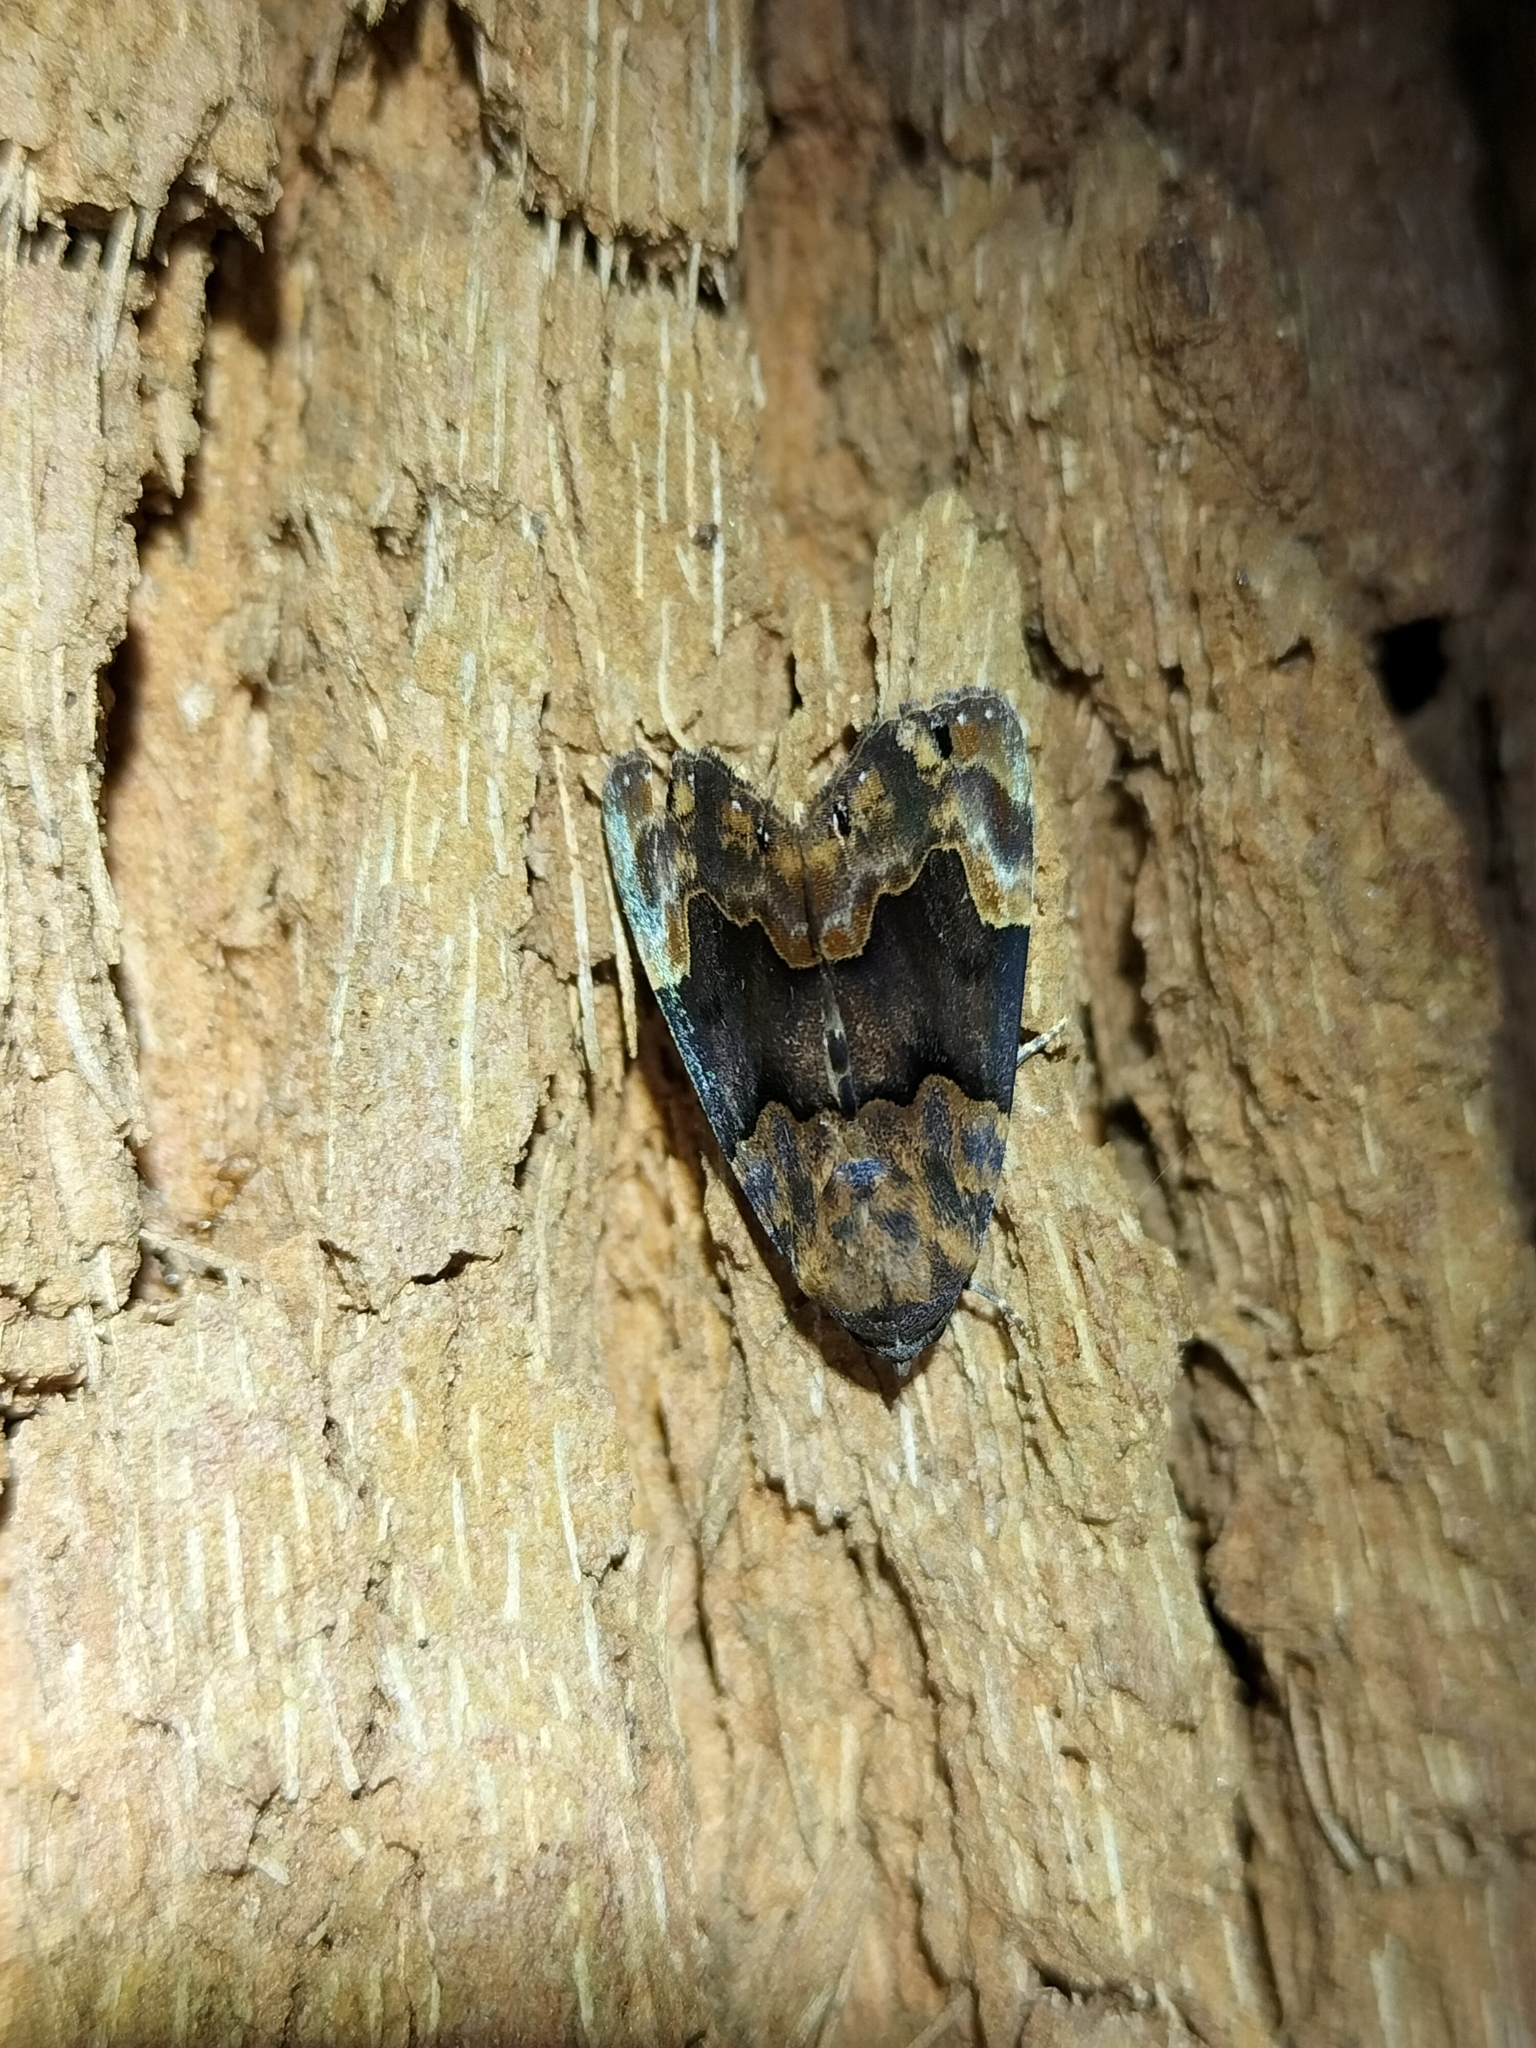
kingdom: Animalia
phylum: Arthropoda
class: Insecta
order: Lepidoptera
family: Erebidae
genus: Dinumma
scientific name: Dinumma mediobrunnea
